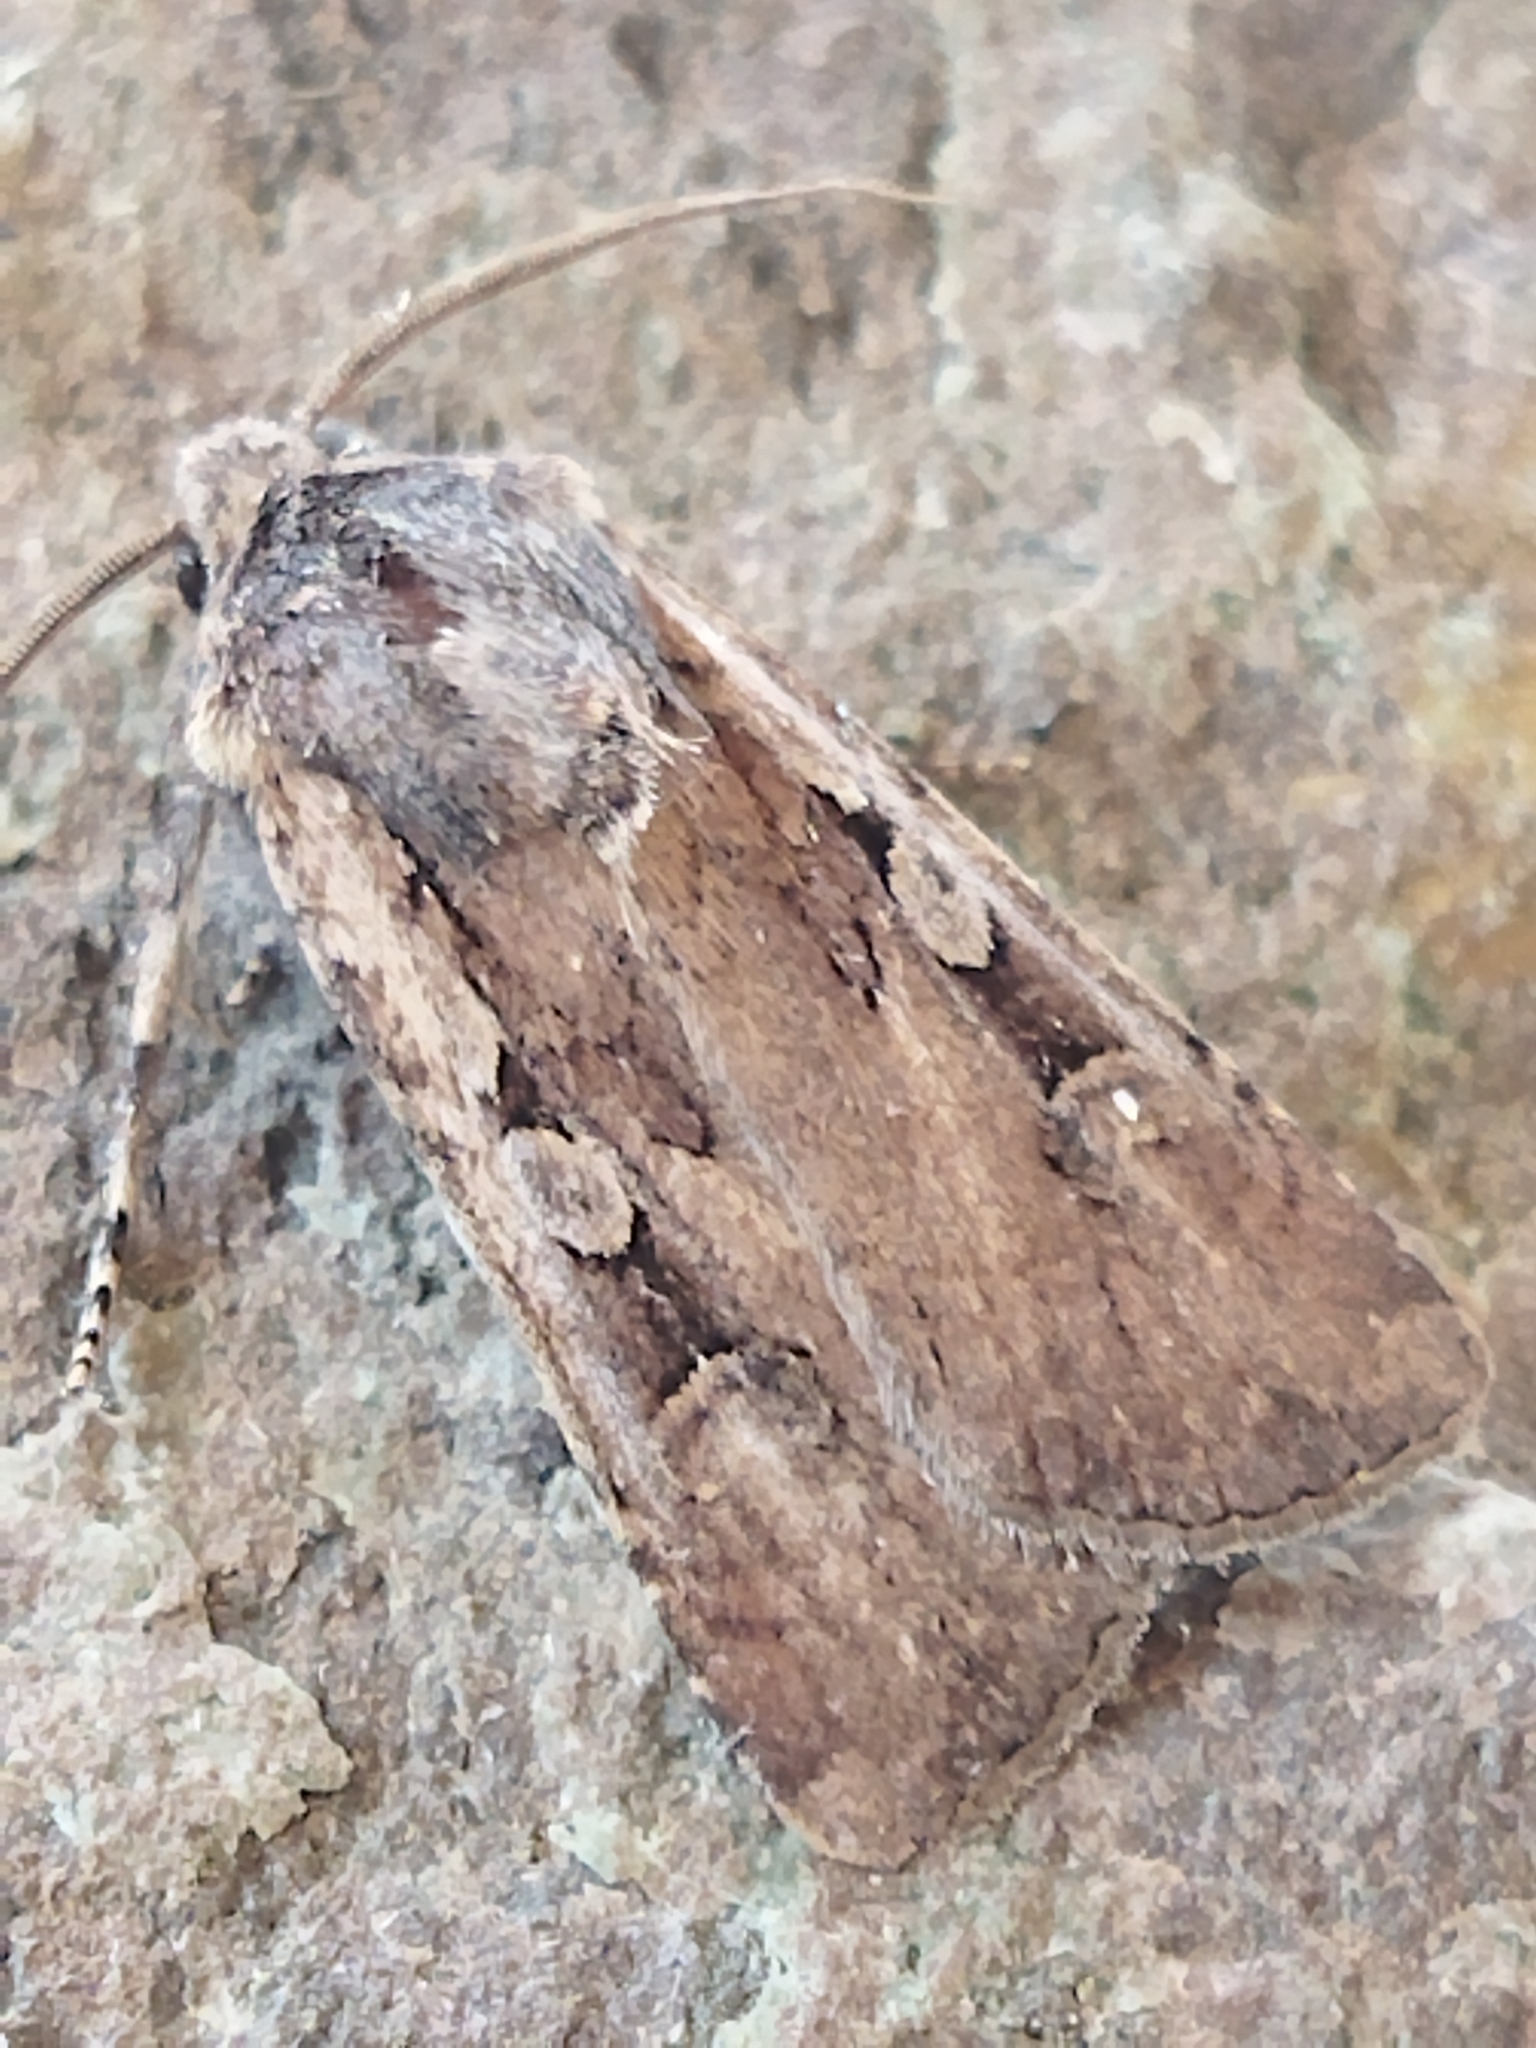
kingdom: Animalia
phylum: Arthropoda
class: Insecta
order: Lepidoptera
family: Noctuidae
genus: Euxoa
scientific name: Euxoa temera
